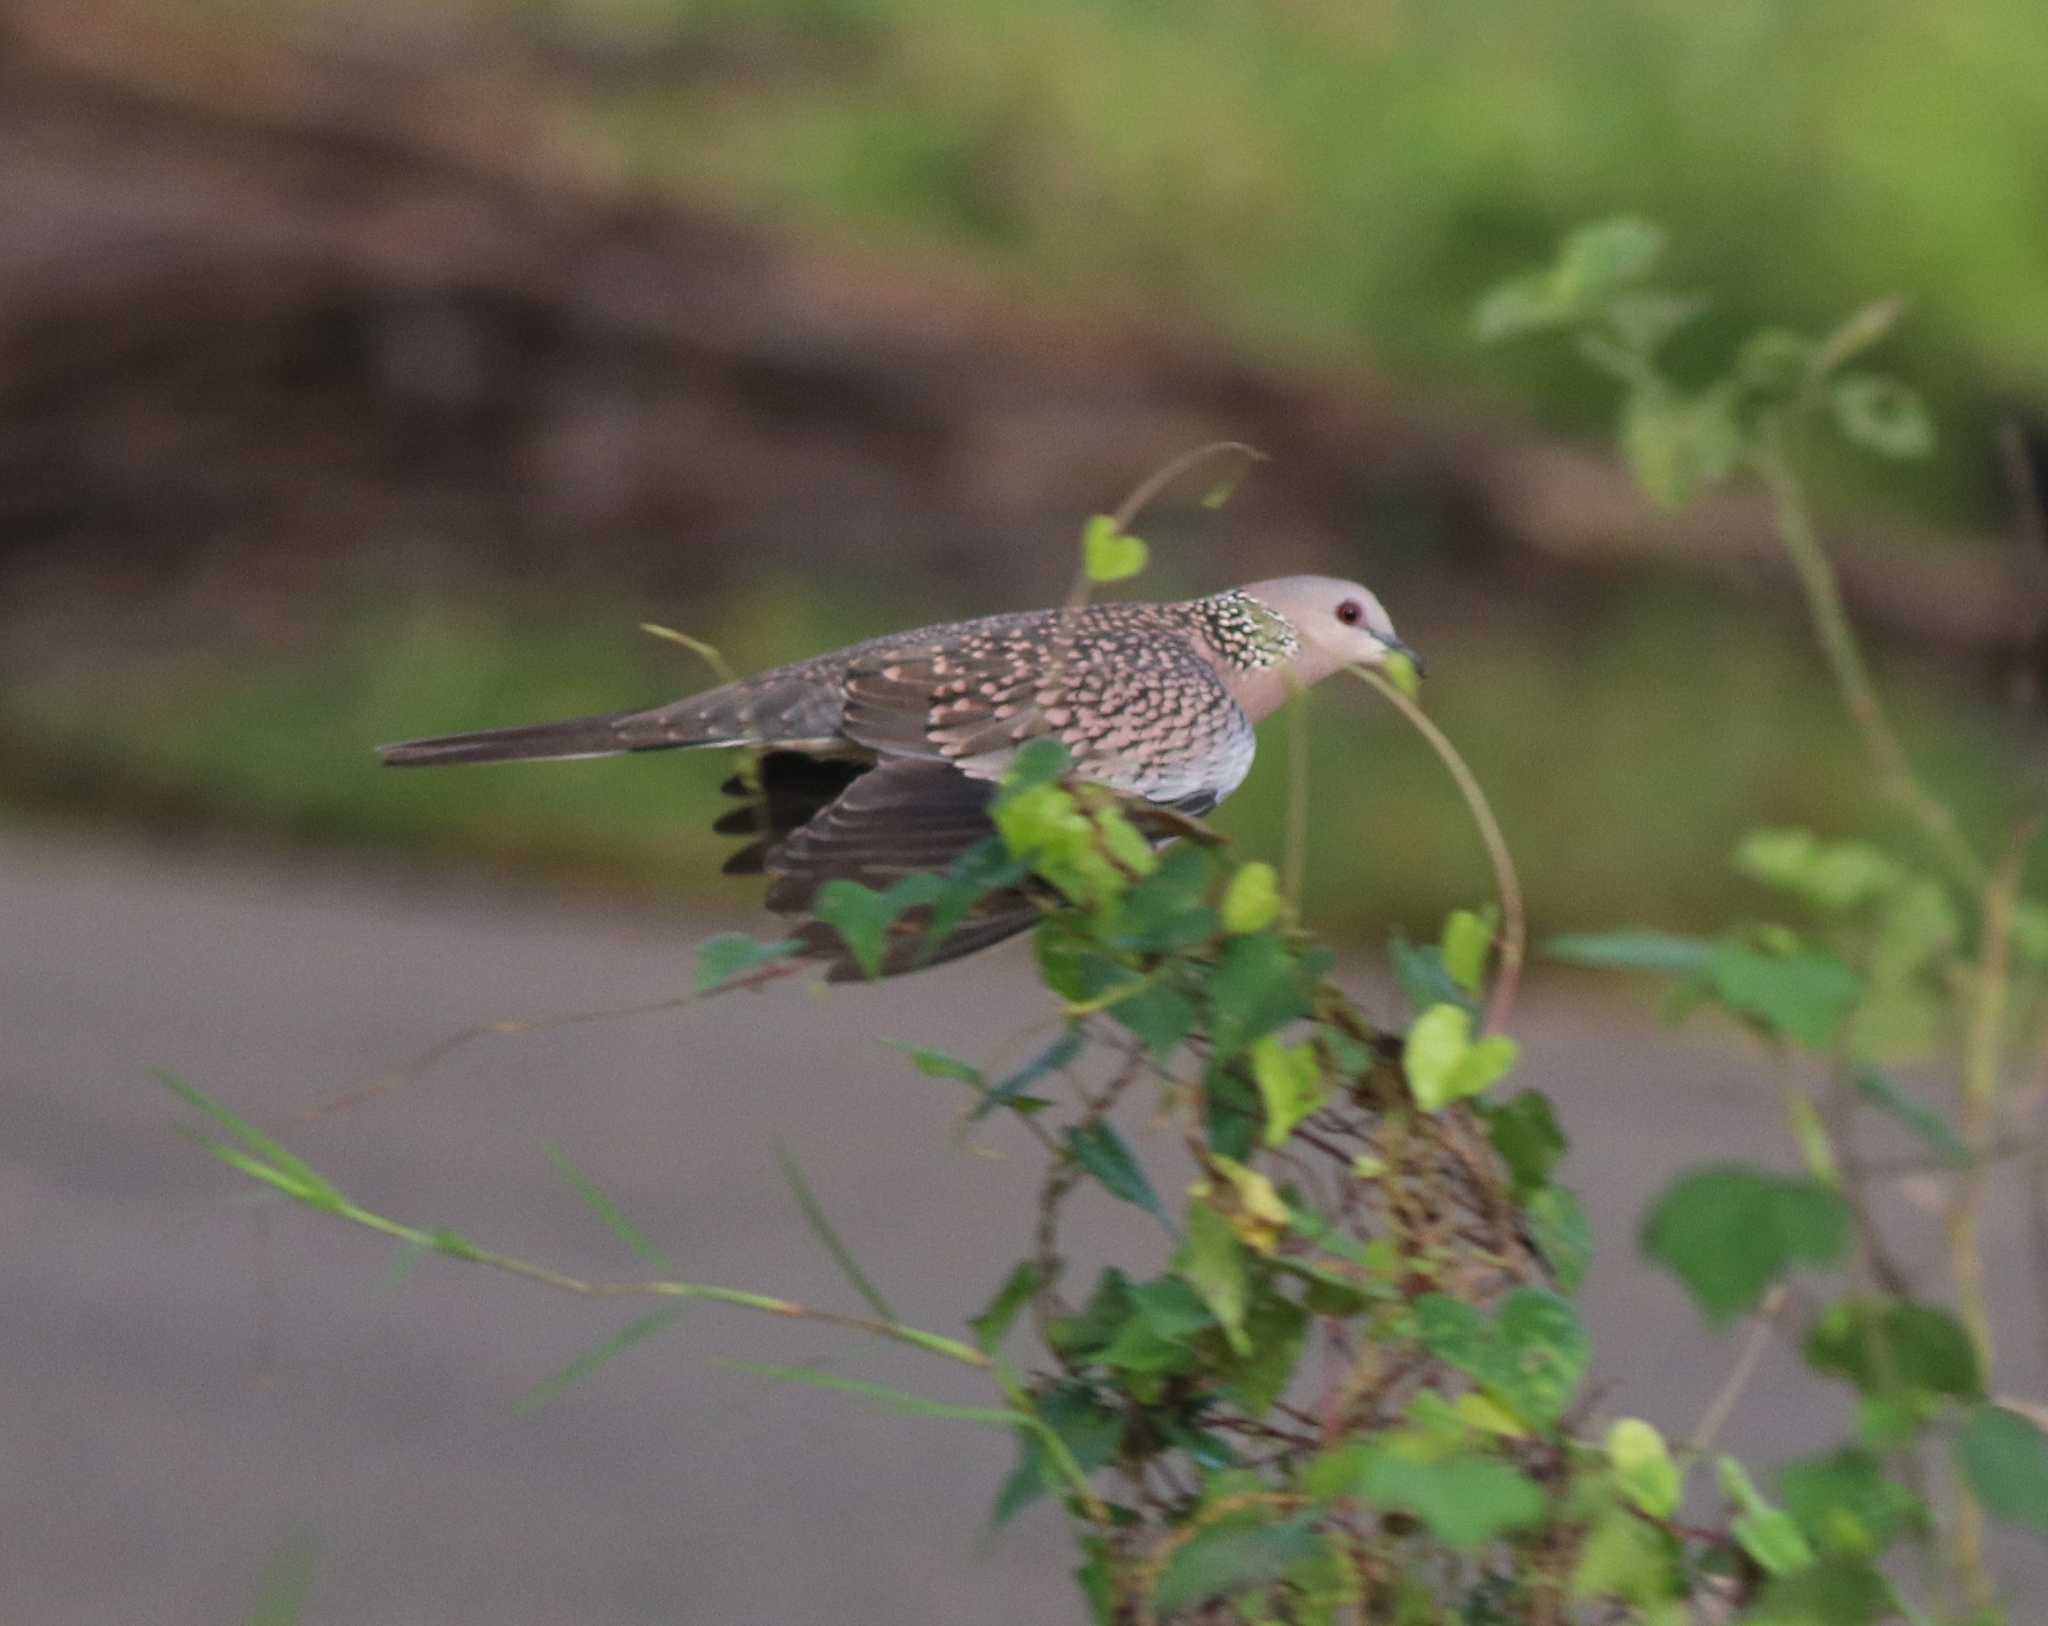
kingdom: Animalia
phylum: Chordata
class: Aves
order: Columbiformes
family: Columbidae
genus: Spilopelia
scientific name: Spilopelia chinensis
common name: Spotted dove
